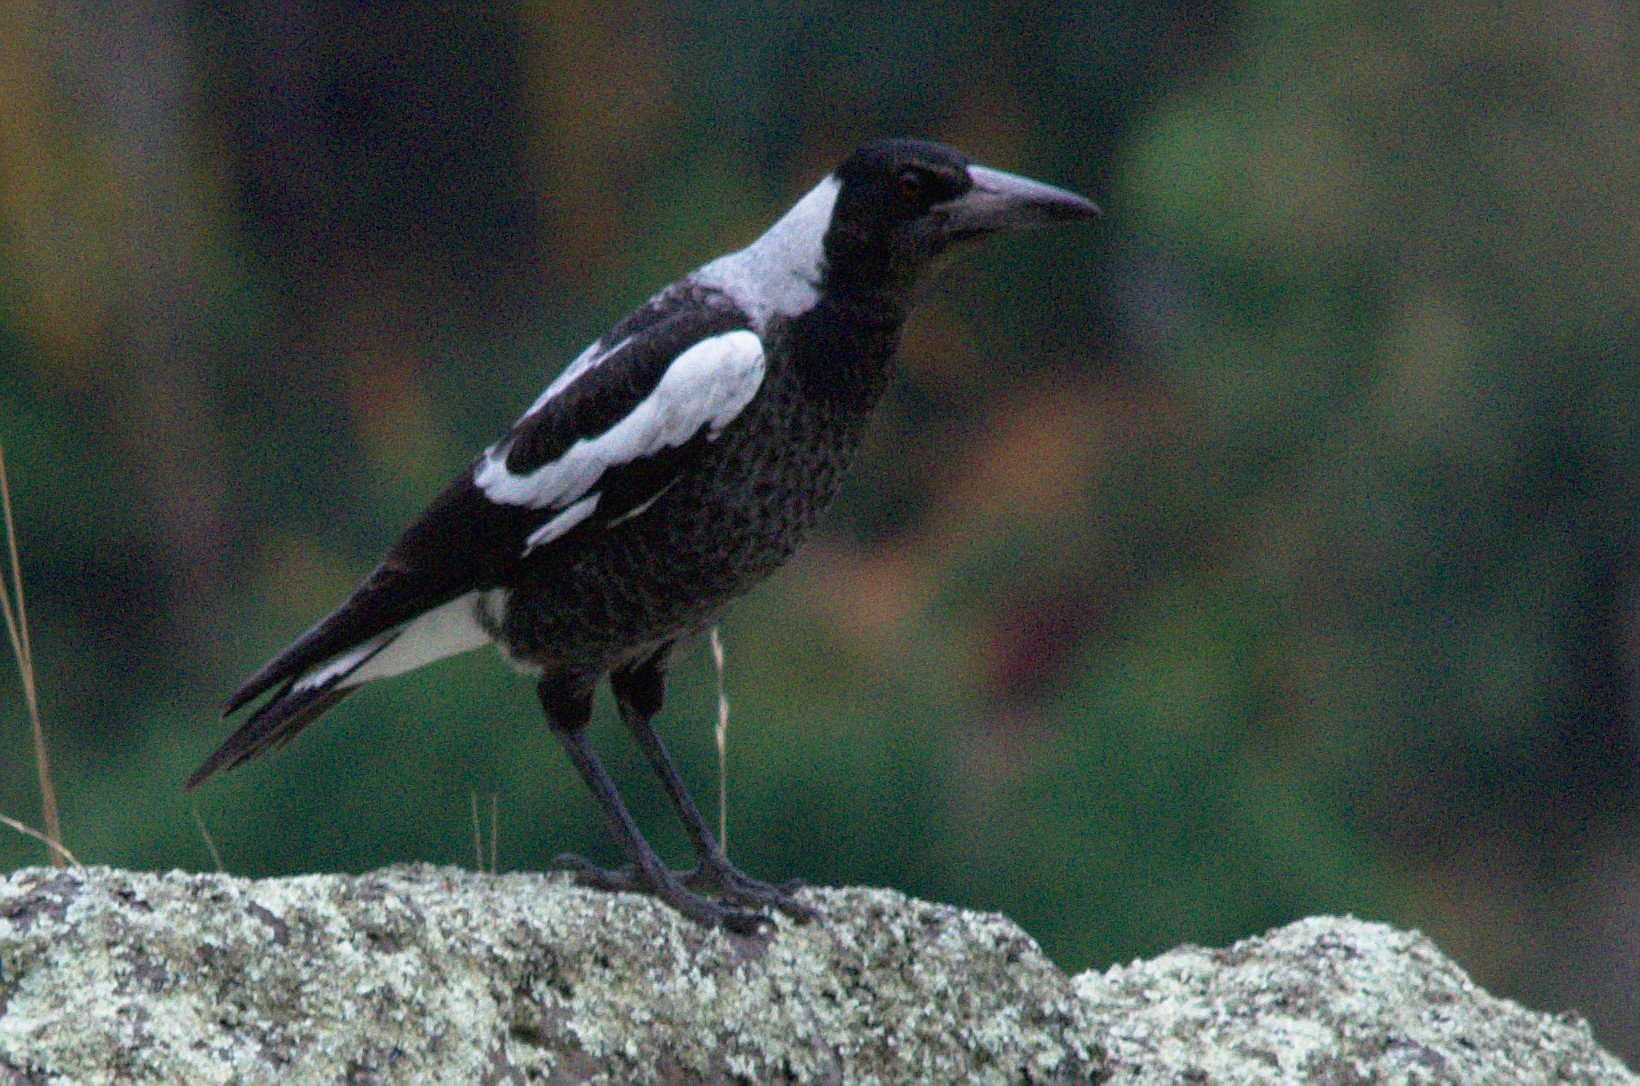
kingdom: Animalia
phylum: Chordata
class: Aves
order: Passeriformes
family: Cracticidae
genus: Gymnorhina
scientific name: Gymnorhina tibicen
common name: Australian magpie
